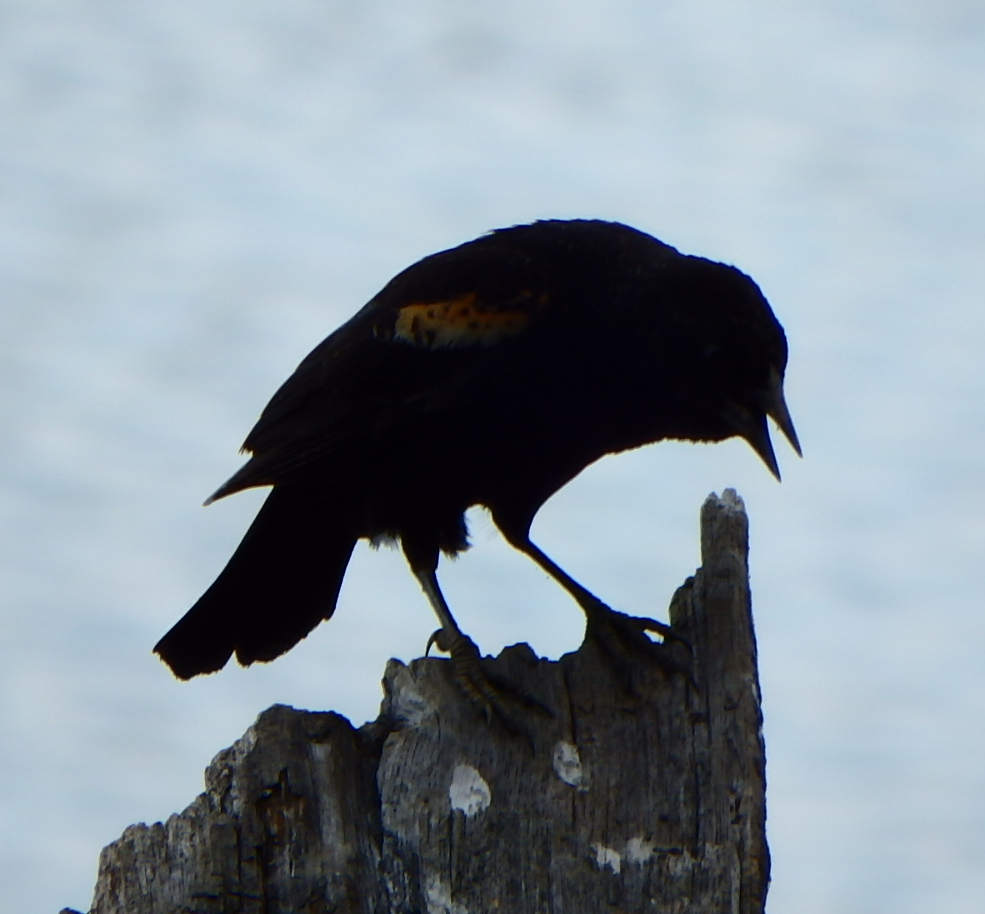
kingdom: Animalia
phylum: Chordata
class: Aves
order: Passeriformes
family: Icteridae
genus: Agelaius
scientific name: Agelaius phoeniceus
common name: Red-winged blackbird
